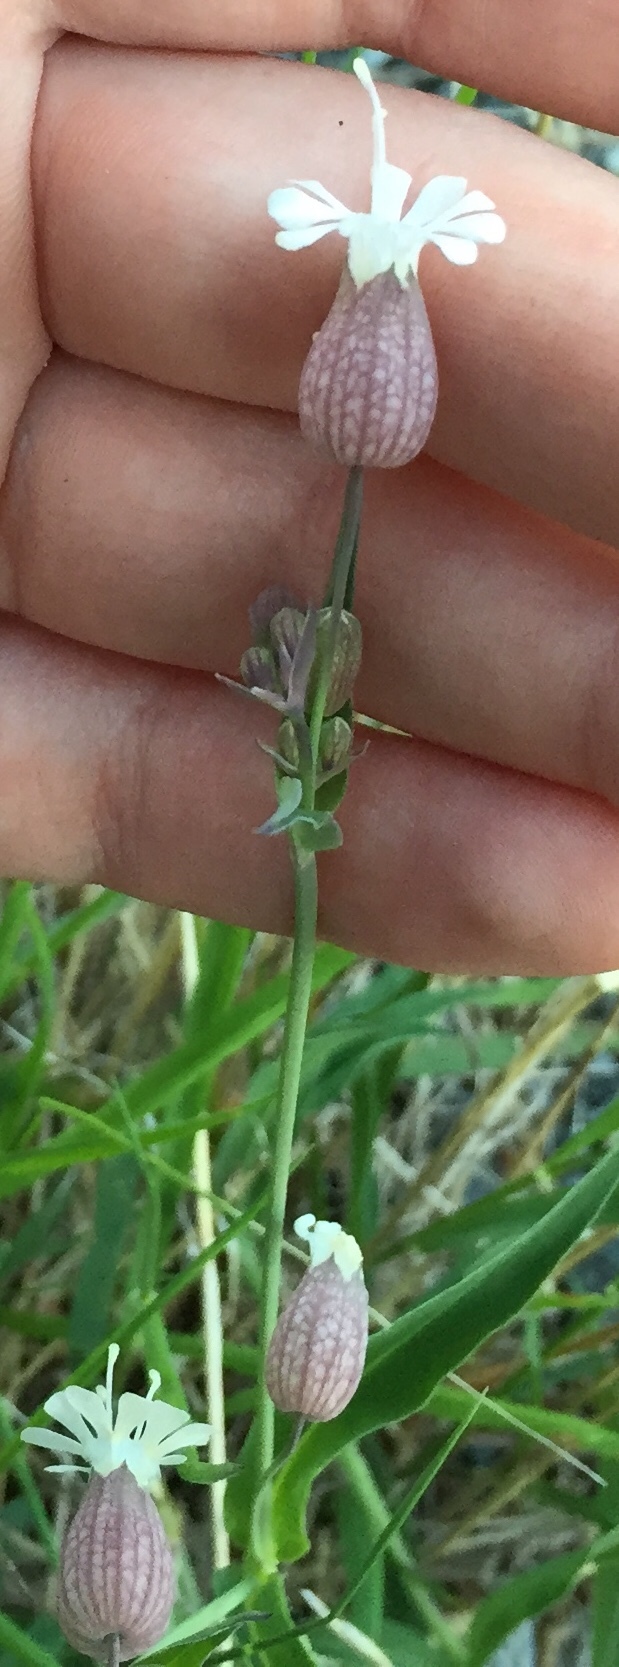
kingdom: Plantae
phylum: Tracheophyta
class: Magnoliopsida
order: Caryophyllales
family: Caryophyllaceae
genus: Silene
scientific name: Silene vulgaris
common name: Bladder campion
